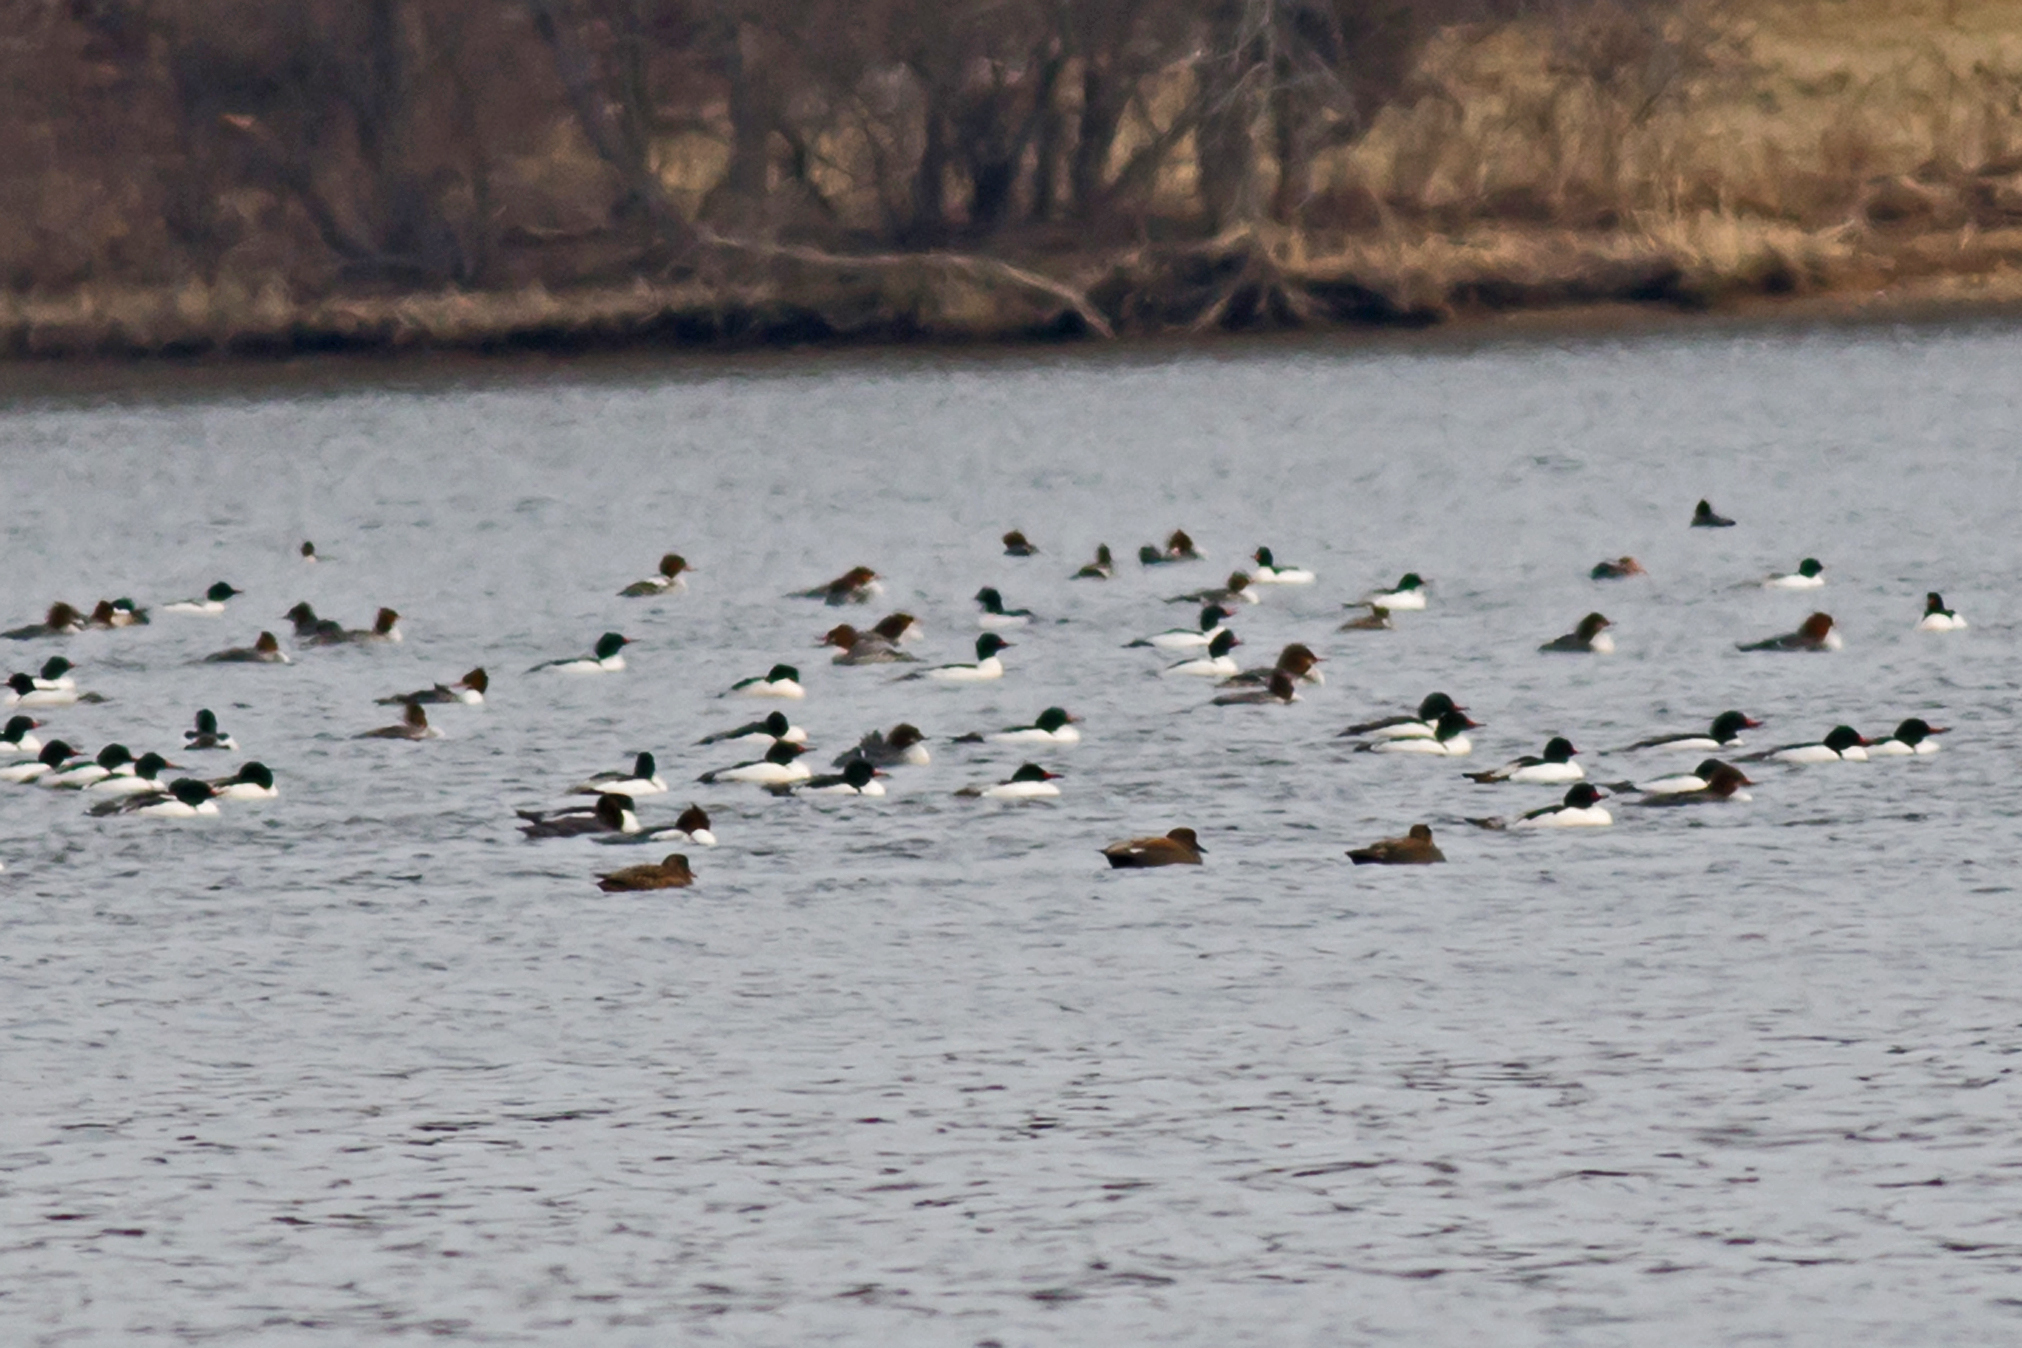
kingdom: Animalia
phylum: Chordata
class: Aves
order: Anseriformes
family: Anatidae
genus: Mareca
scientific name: Mareca strepera
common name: Gadwall
